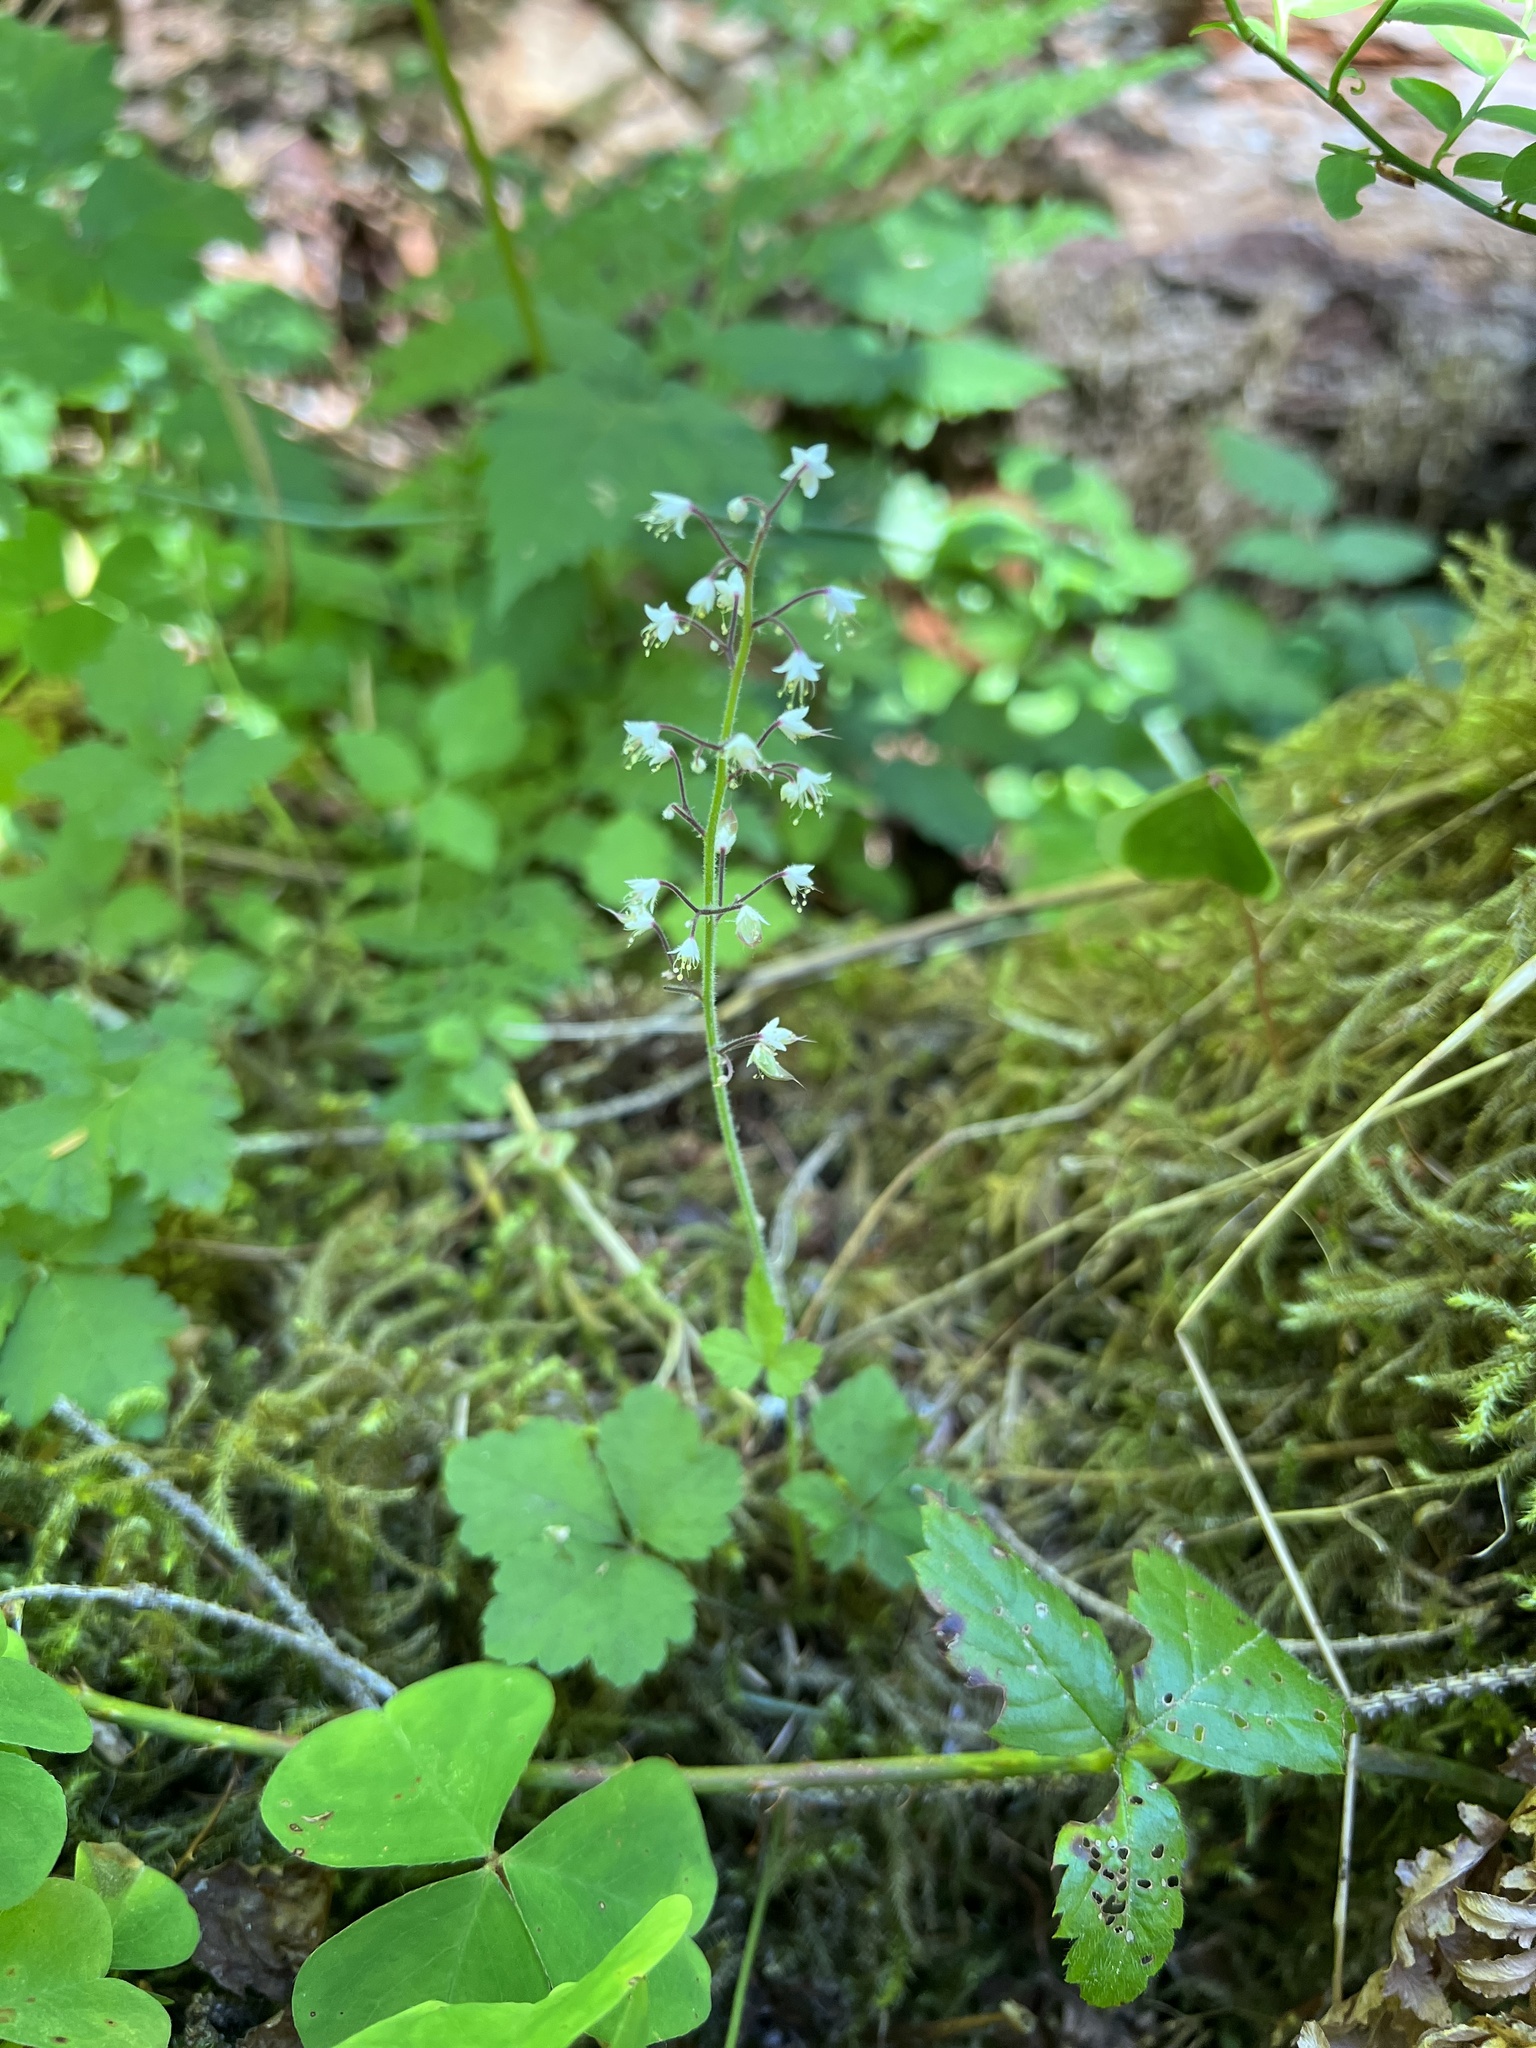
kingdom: Plantae
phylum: Tracheophyta
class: Magnoliopsida
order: Saxifragales
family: Saxifragaceae
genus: Tiarella
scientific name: Tiarella trifoliata
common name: Sugar-scoop
